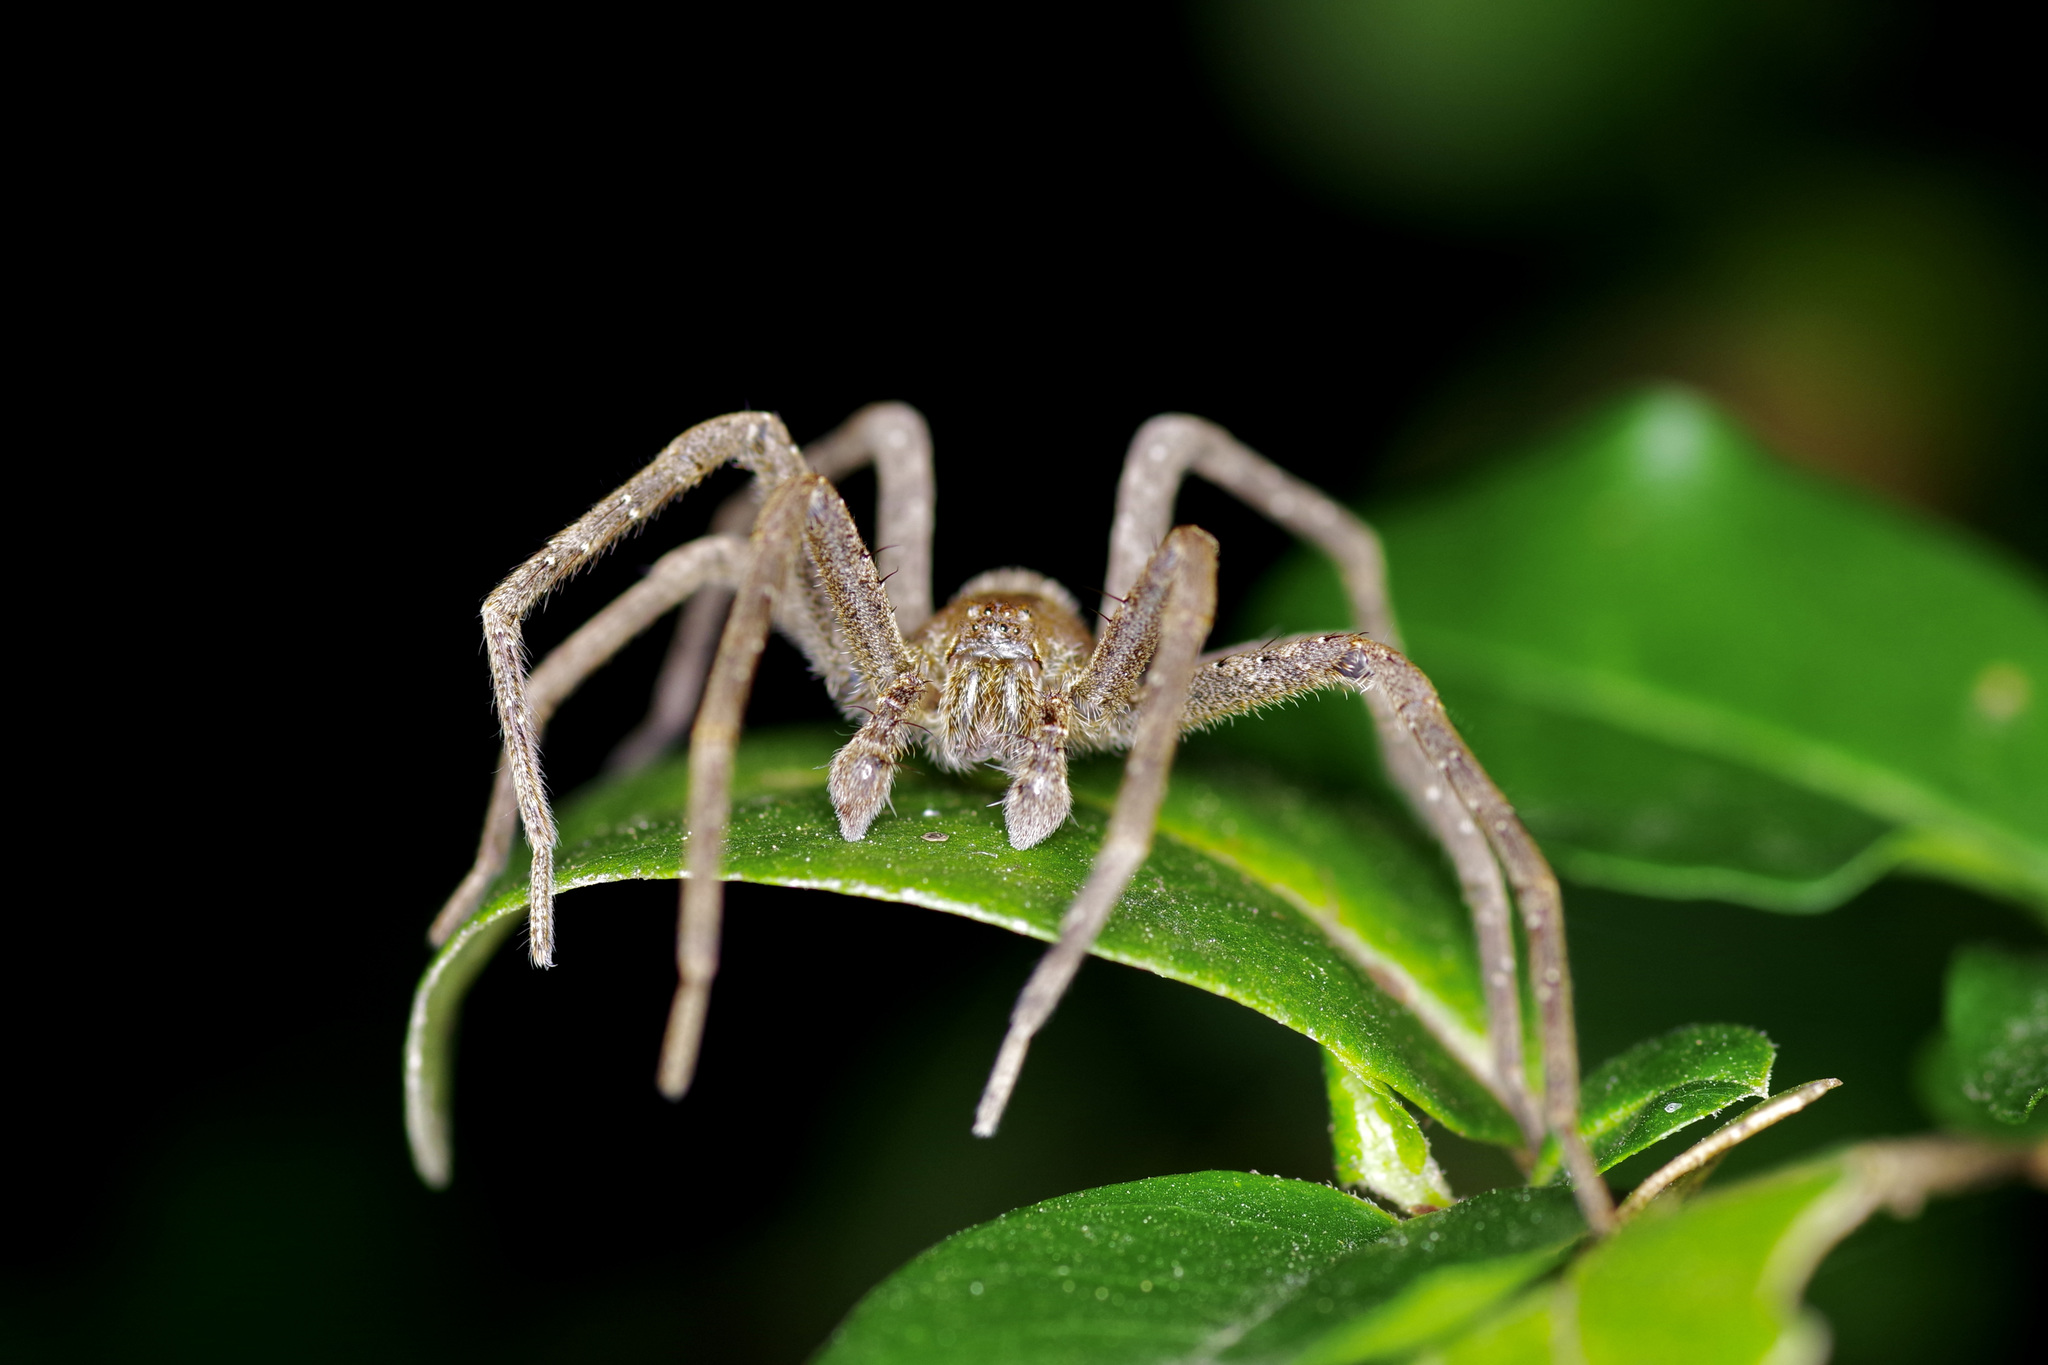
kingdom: Animalia
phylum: Arthropoda
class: Arachnida
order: Araneae
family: Pisauridae
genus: Pisaurina
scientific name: Pisaurina mira
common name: American nursery web spider
